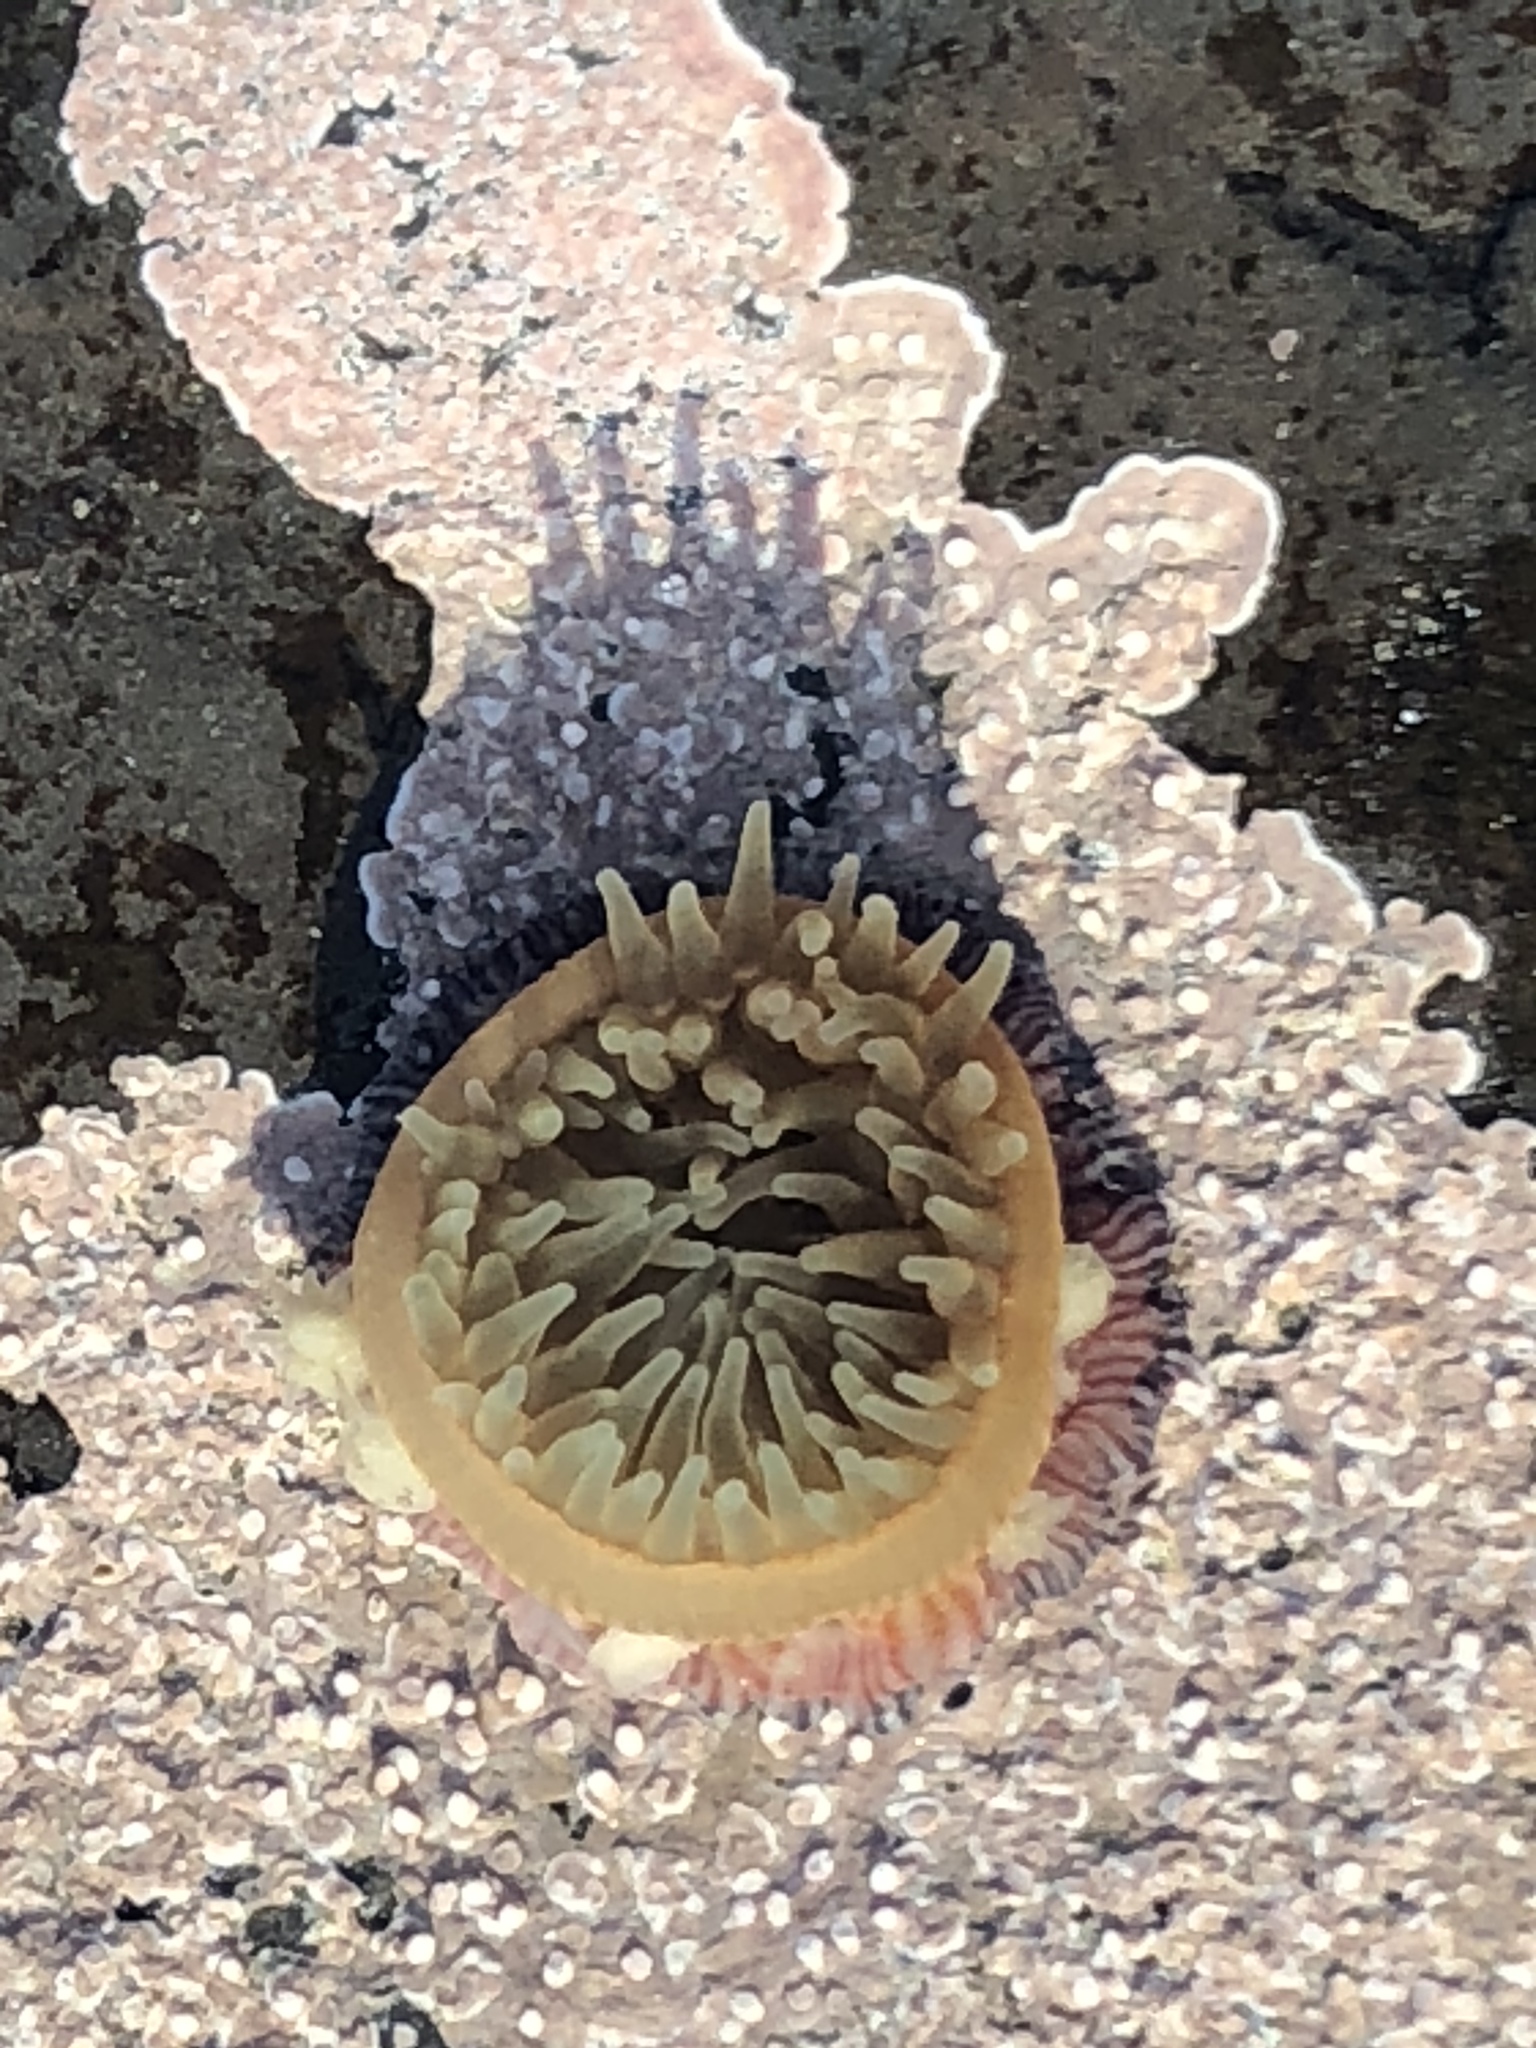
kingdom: Animalia
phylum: Cnidaria
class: Anthozoa
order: Actiniaria
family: Actiniidae
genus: Epiactis
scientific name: Epiactis prolifera
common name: Brooding anemone
